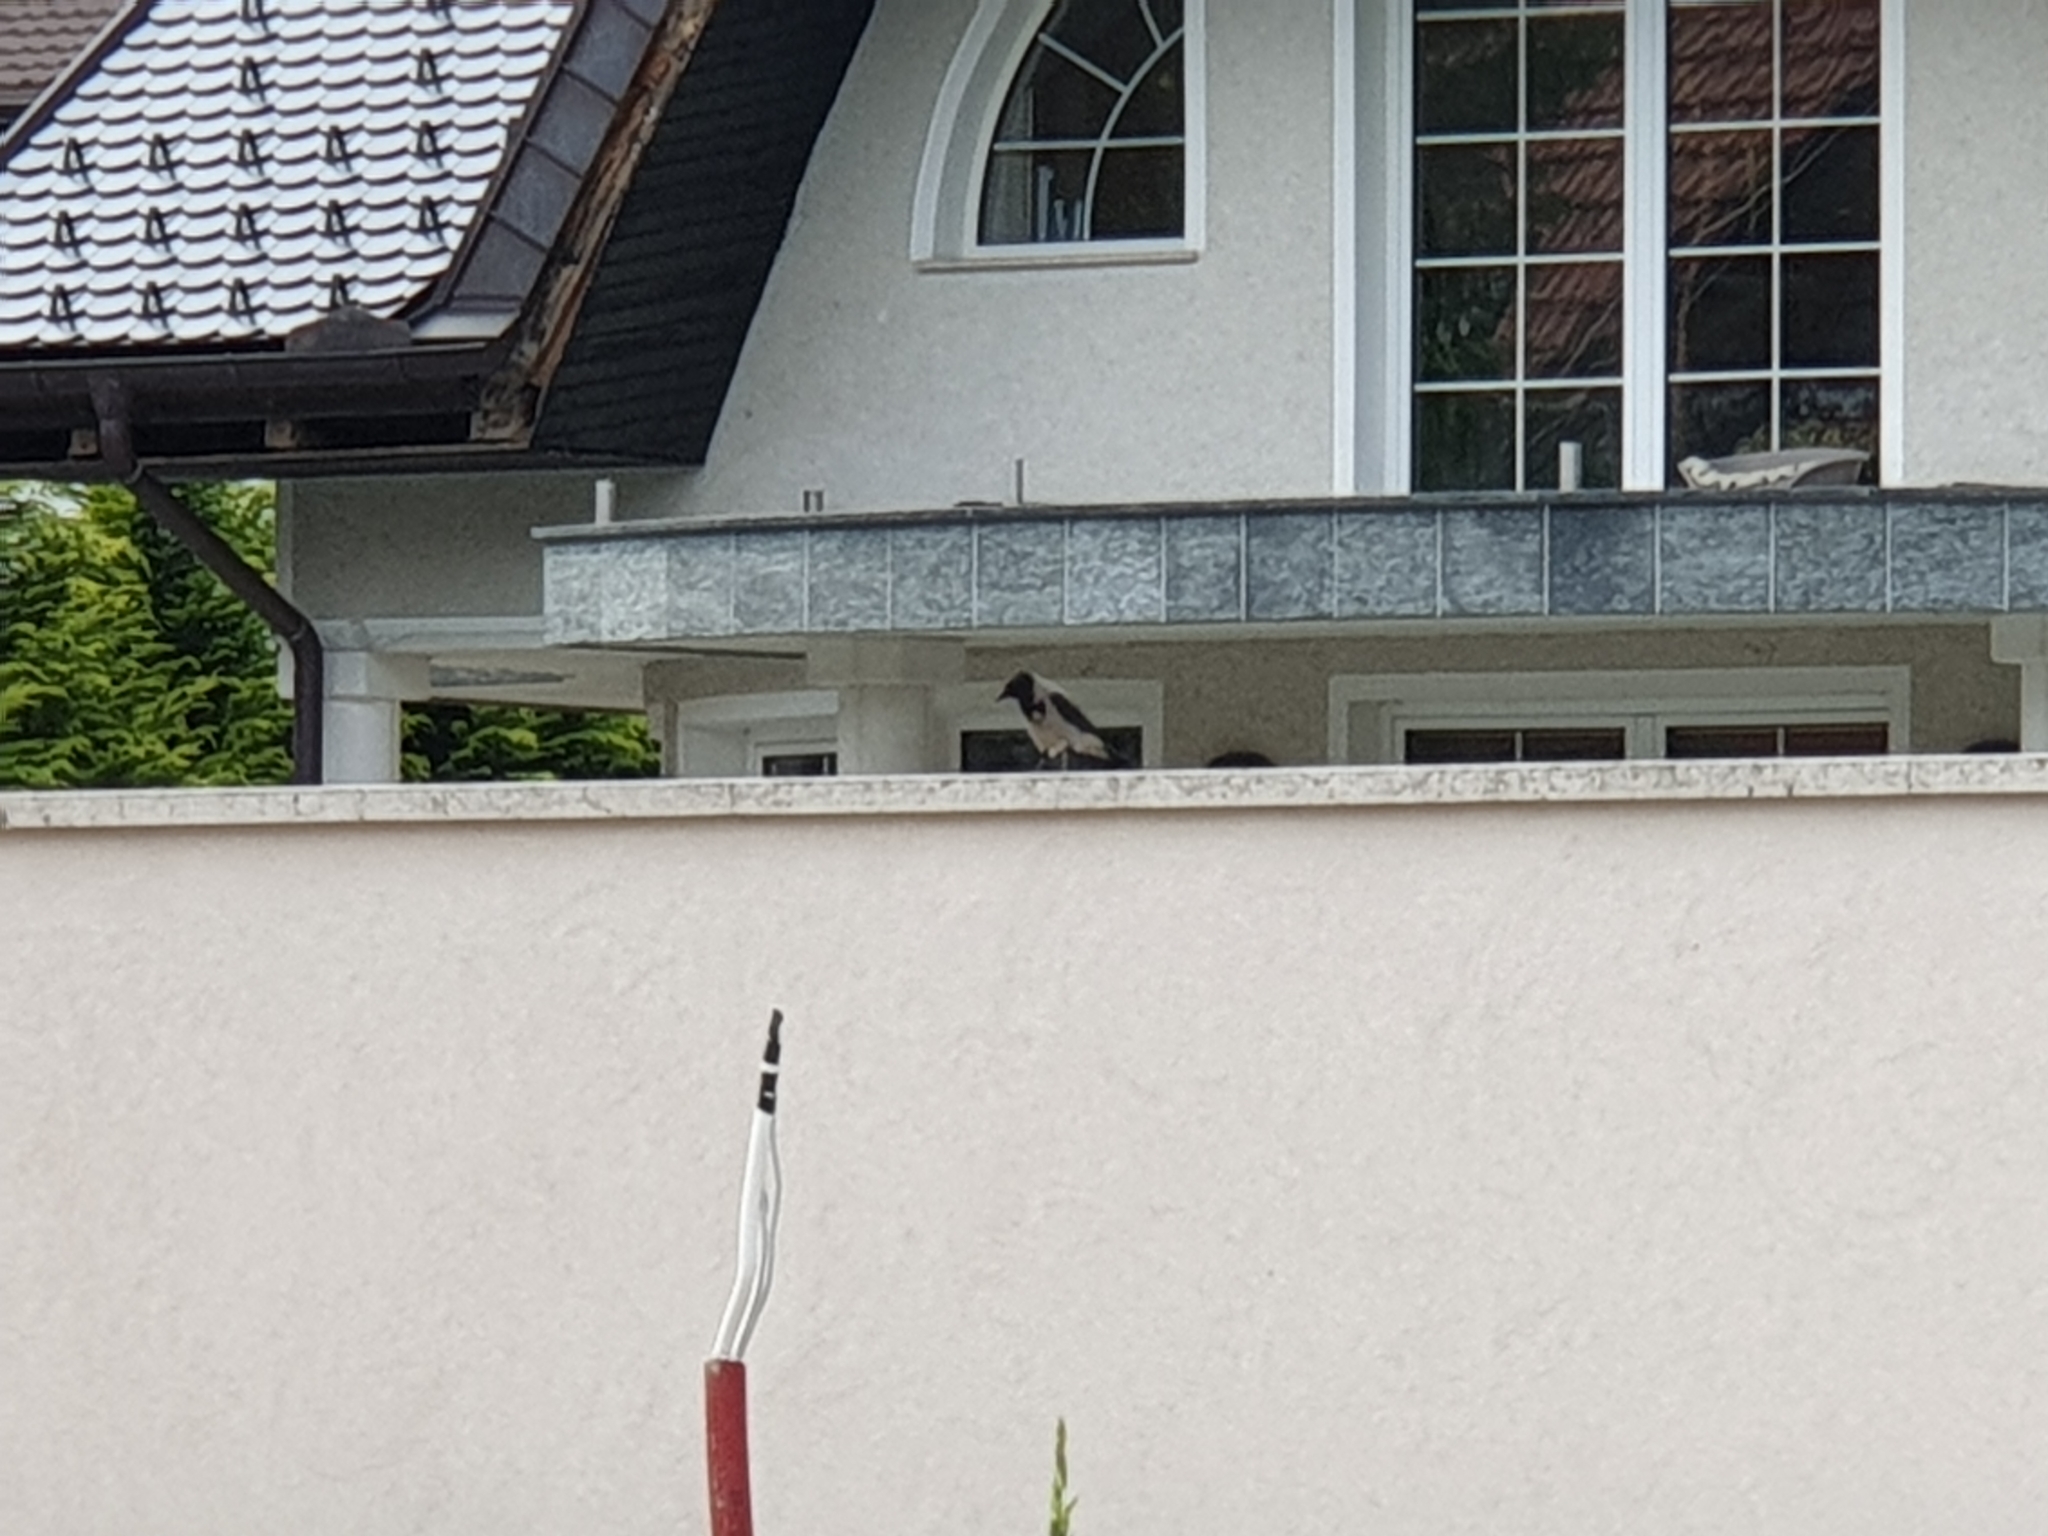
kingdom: Animalia
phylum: Chordata
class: Aves
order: Passeriformes
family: Corvidae
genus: Corvus
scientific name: Corvus cornix
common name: Hooded crow
